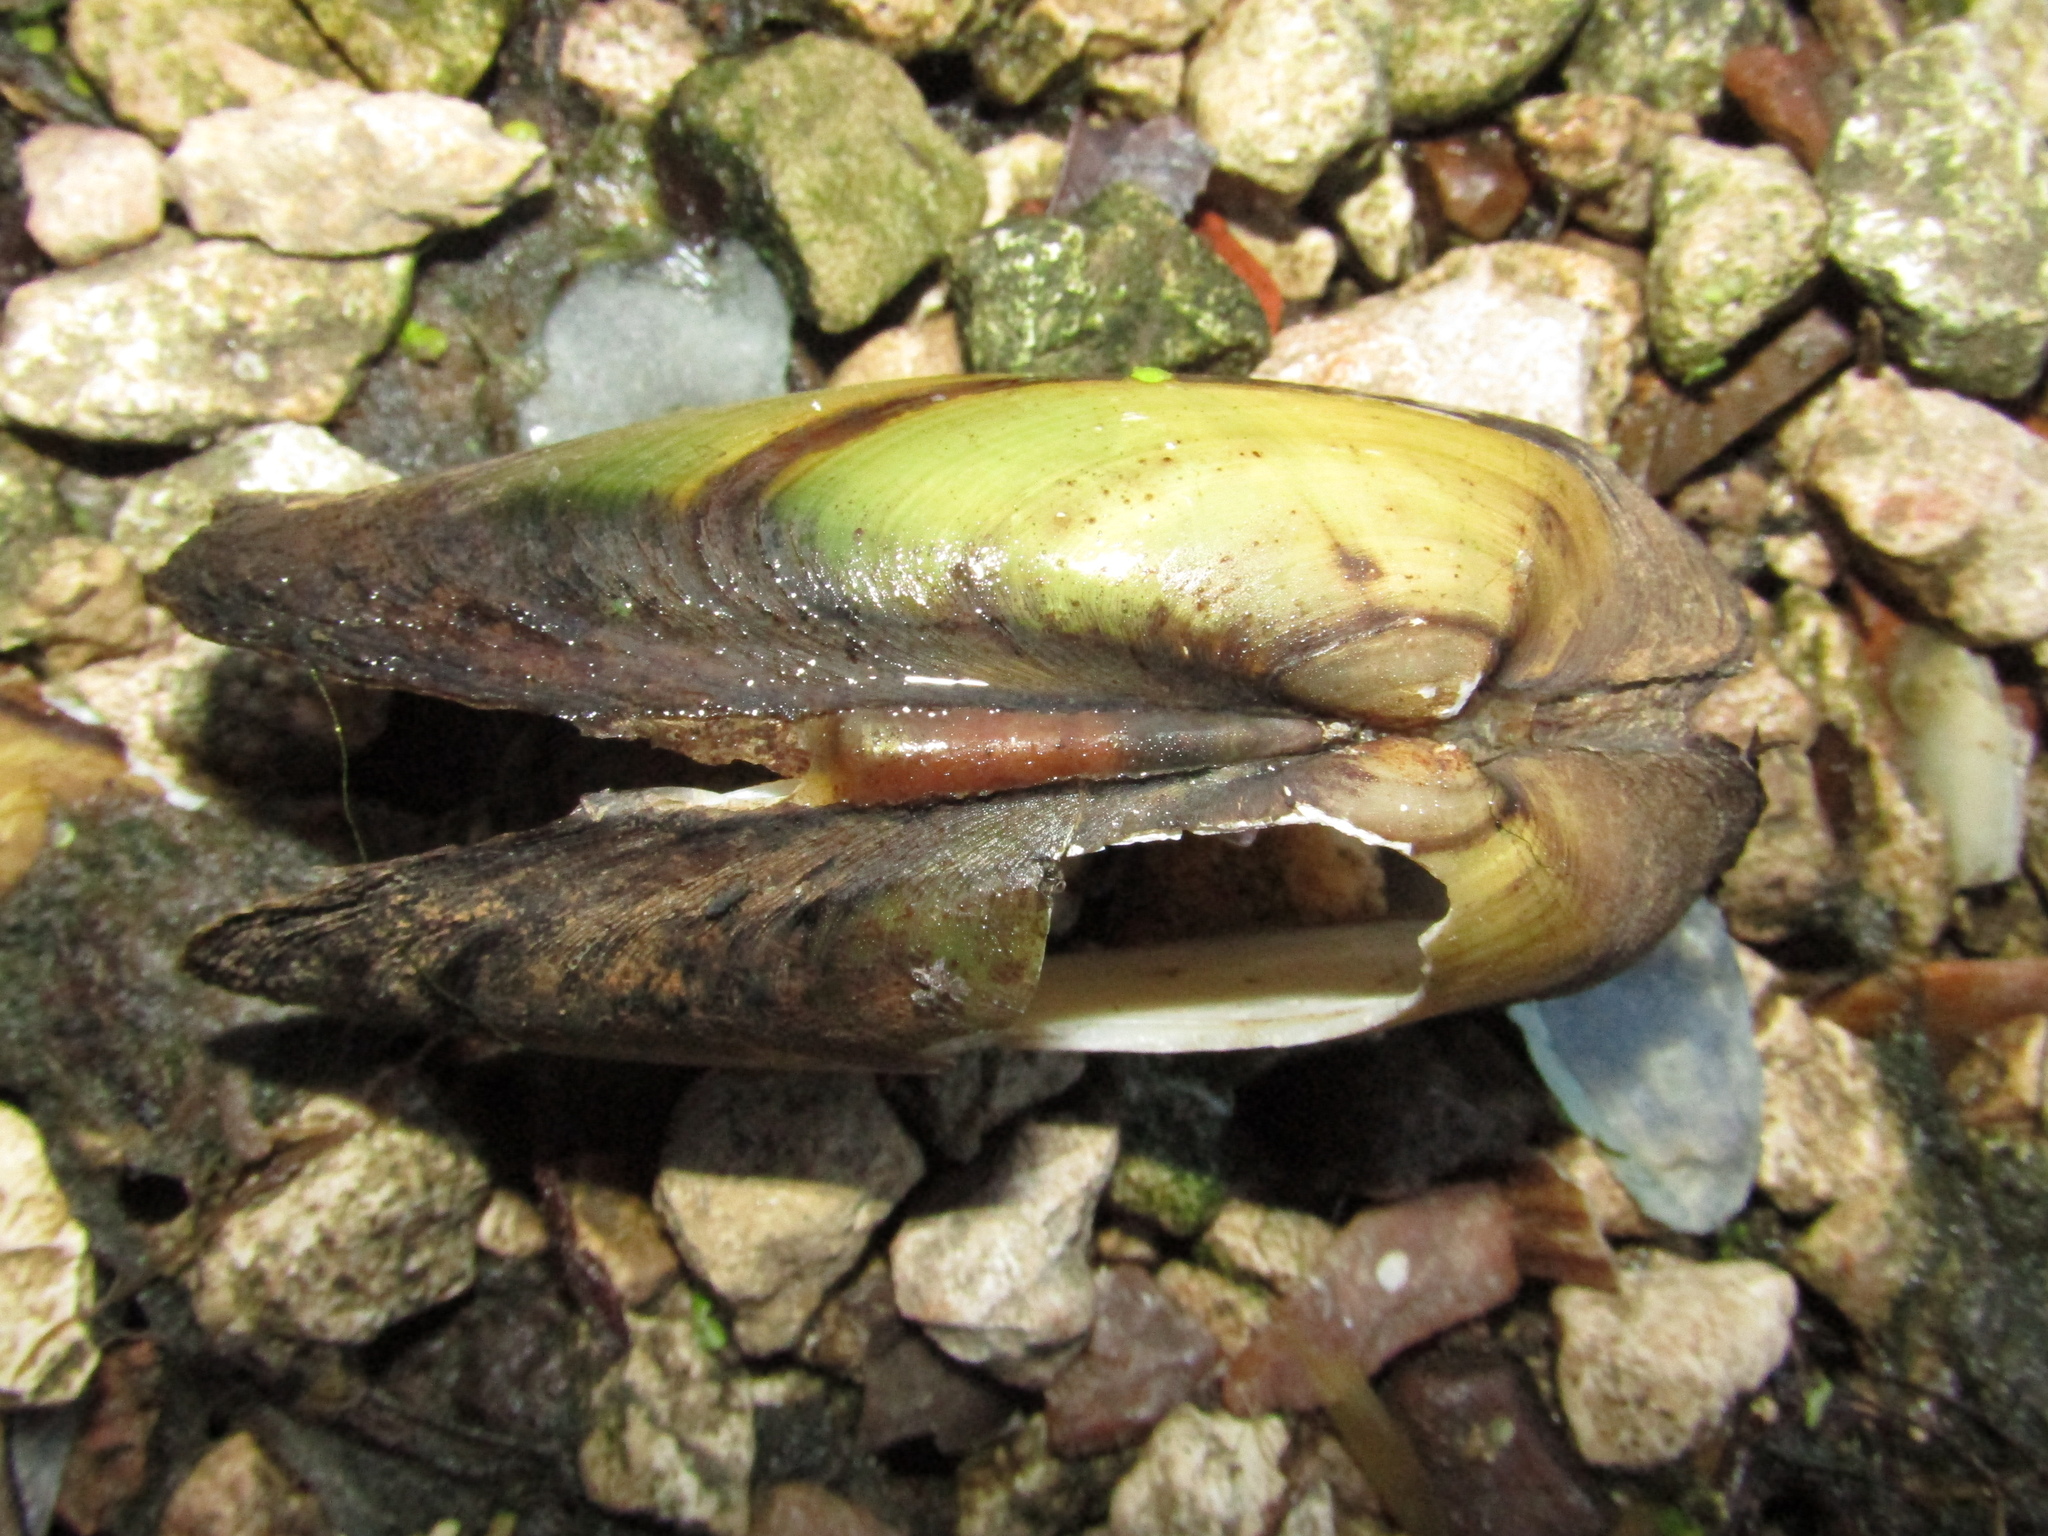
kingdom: Animalia
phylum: Mollusca
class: Bivalvia
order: Unionida
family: Unionidae
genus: Unio
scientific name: Unio pictorum
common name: Painter's mussel
